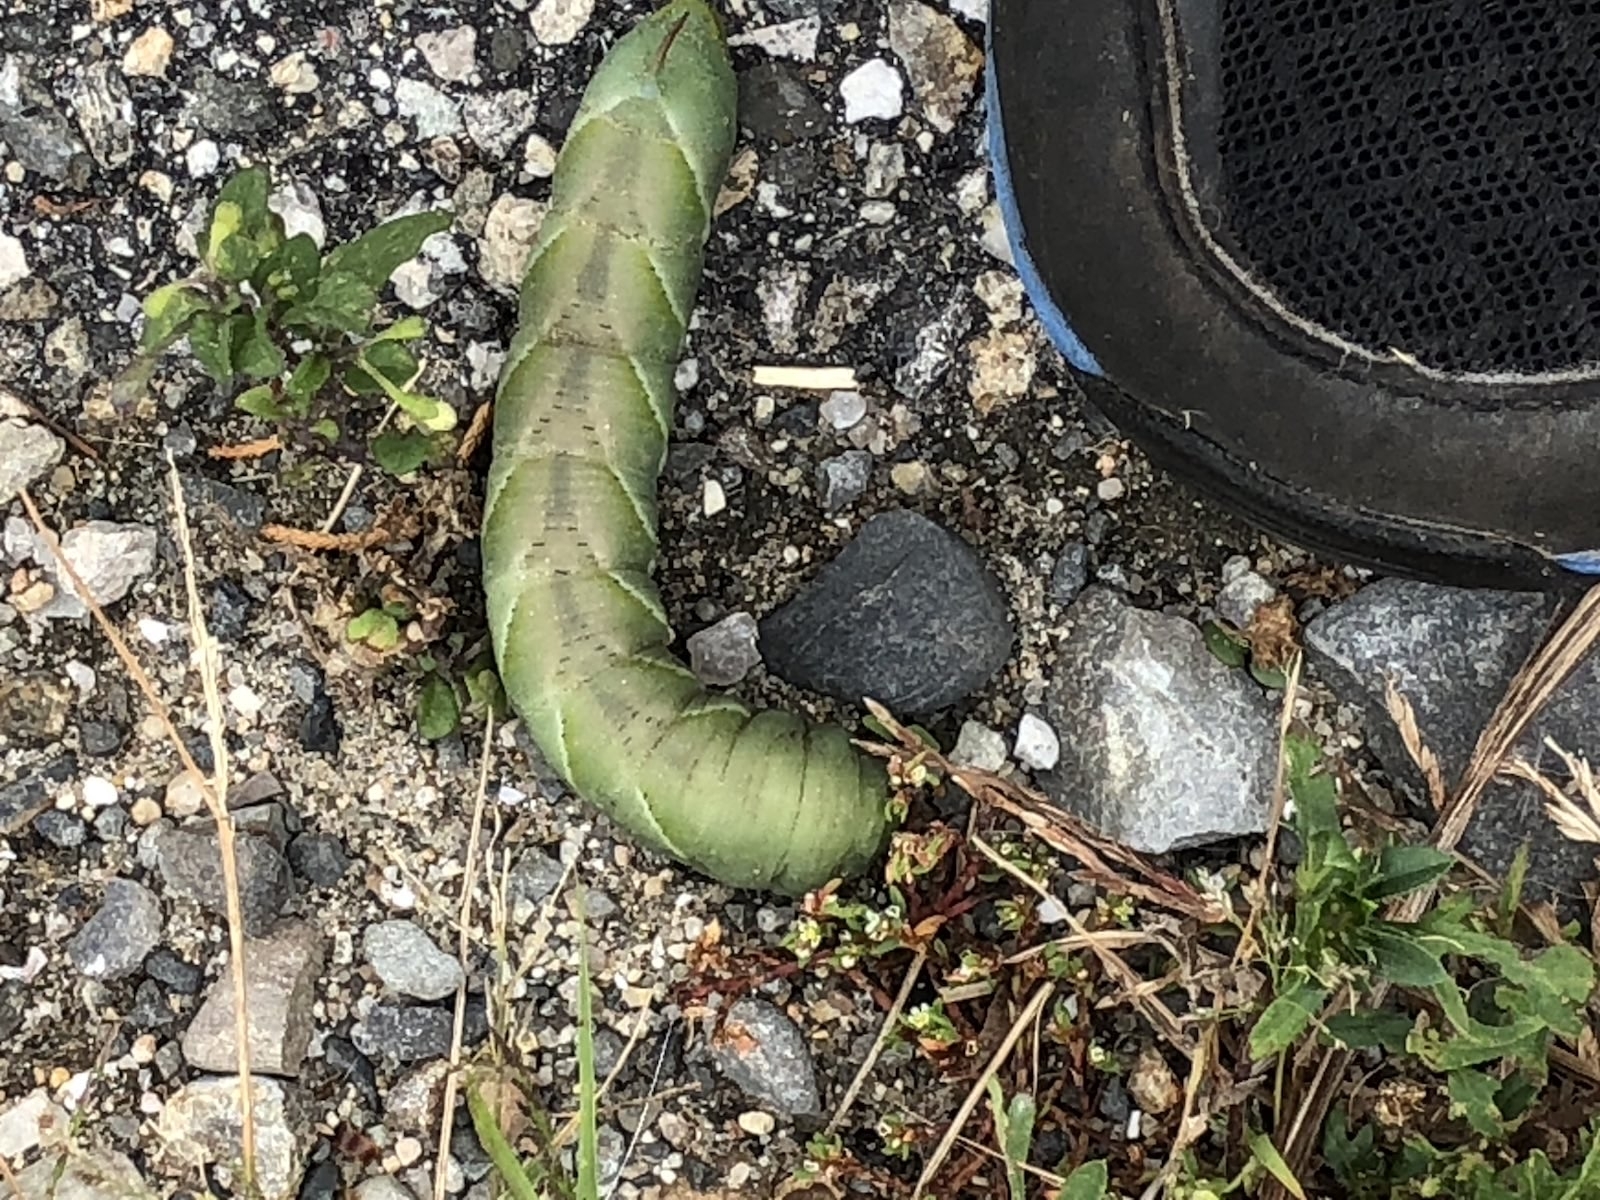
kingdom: Animalia
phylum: Arthropoda
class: Insecta
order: Lepidoptera
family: Sphingidae
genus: Manduca
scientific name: Manduca sexta
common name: Carolina sphinx
